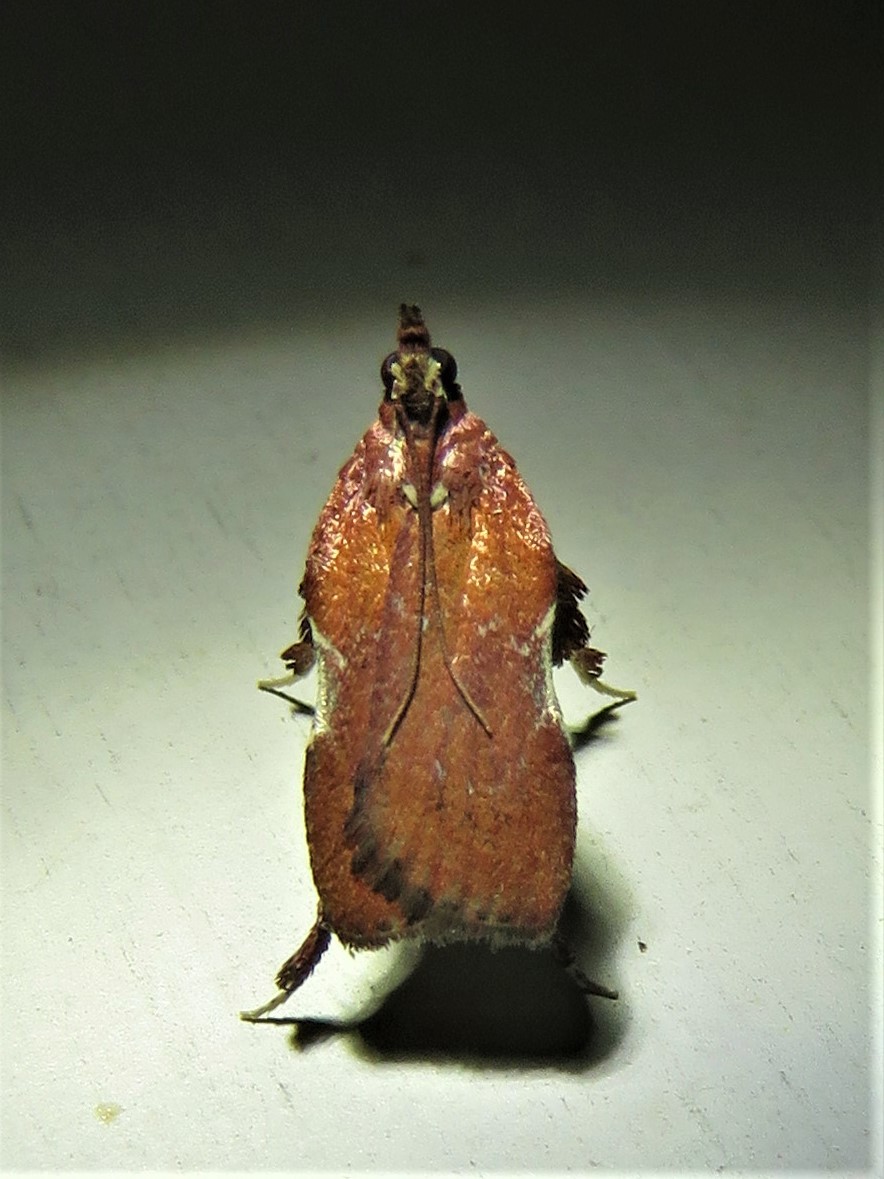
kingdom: Animalia
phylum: Arthropoda
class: Insecta
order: Lepidoptera
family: Pyralidae
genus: Galasa
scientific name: Galasa nigrinodis
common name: Boxwood leaftier moth
